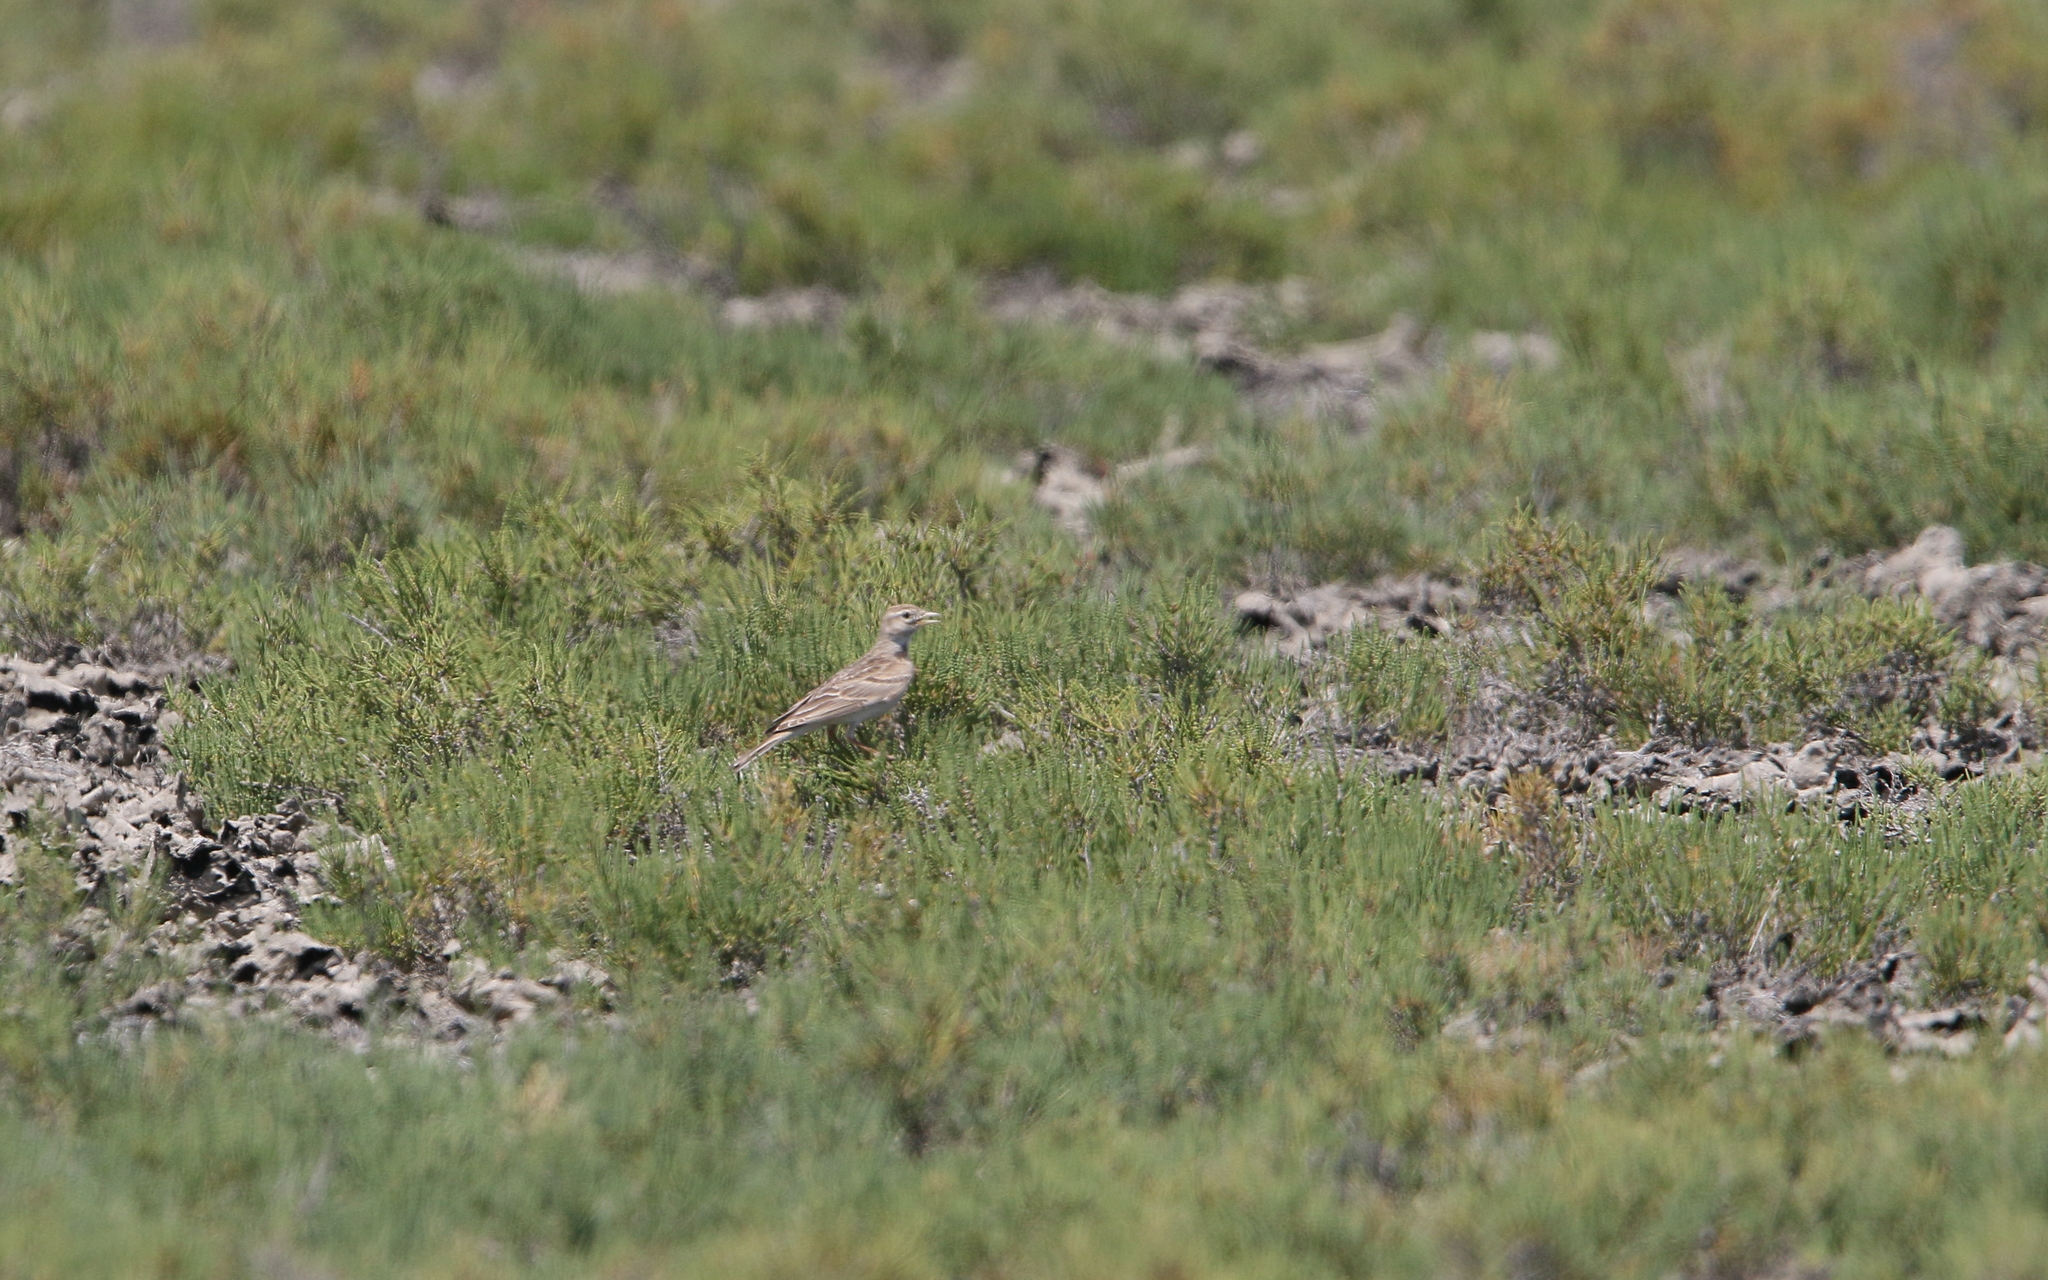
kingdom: Animalia
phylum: Chordata
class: Aves
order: Passeriformes
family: Alaudidae
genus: Calandrella
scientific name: Calandrella brachydactyla
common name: Greater short-toed lark
